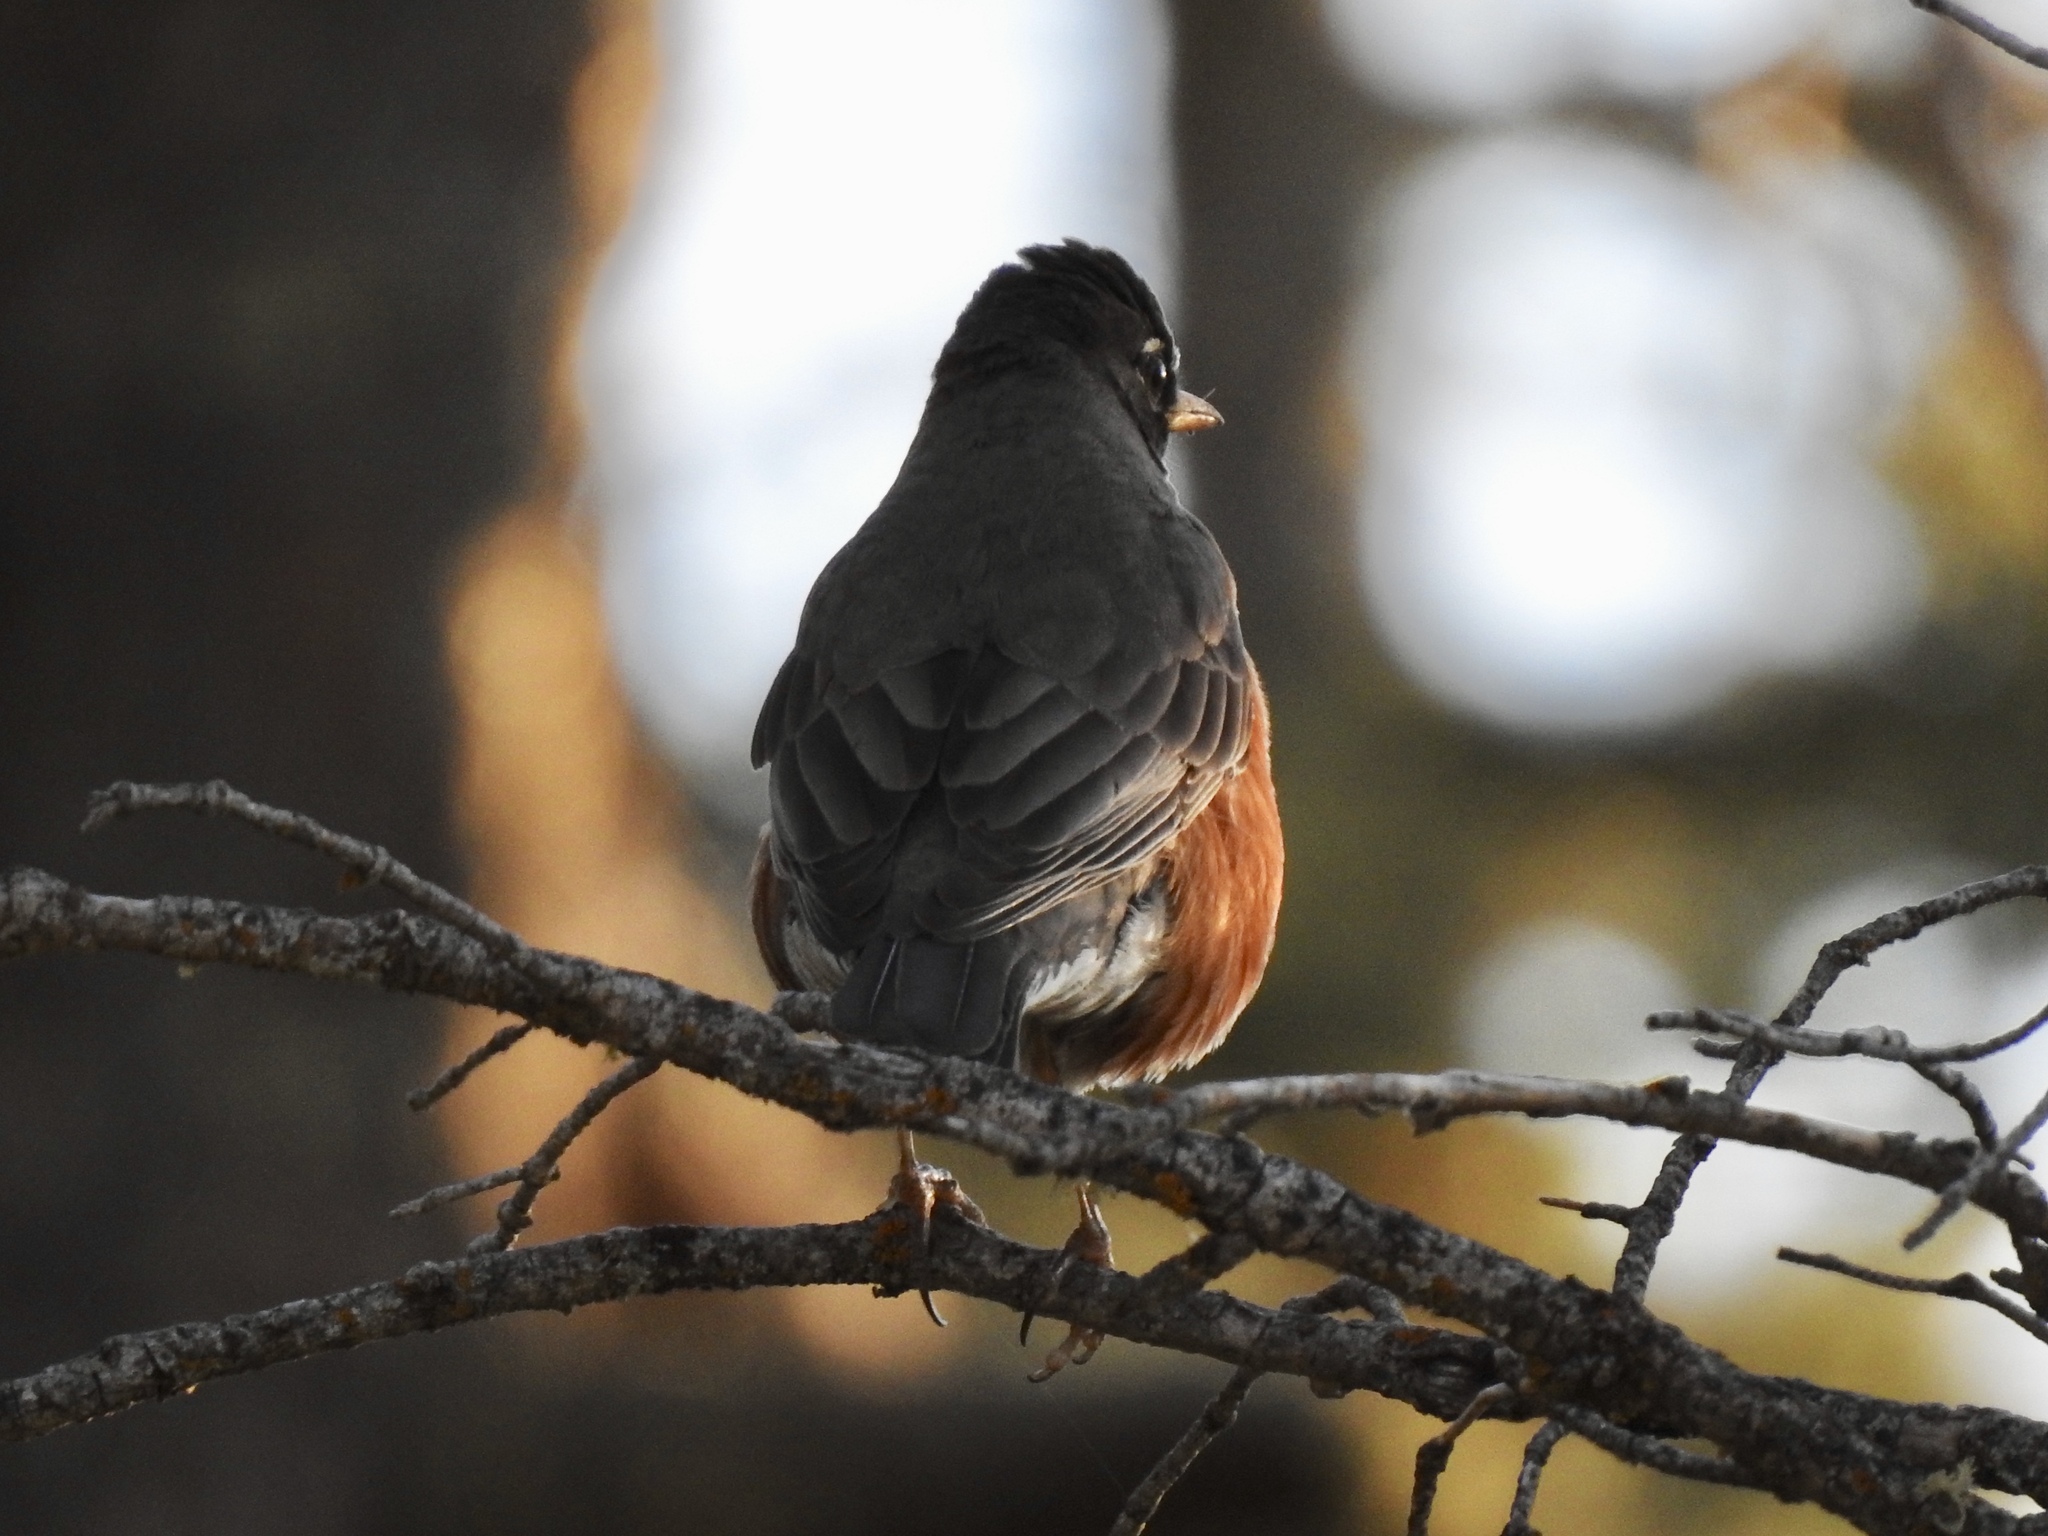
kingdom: Animalia
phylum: Chordata
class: Aves
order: Passeriformes
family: Turdidae
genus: Turdus
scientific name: Turdus migratorius
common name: American robin
